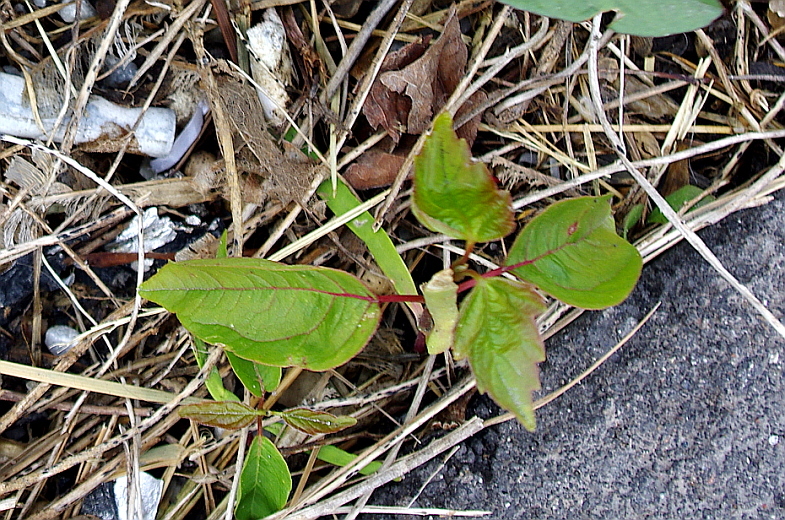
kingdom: Plantae
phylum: Tracheophyta
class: Magnoliopsida
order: Sapindales
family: Sapindaceae
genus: Acer
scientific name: Acer negundo
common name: Ashleaf maple
